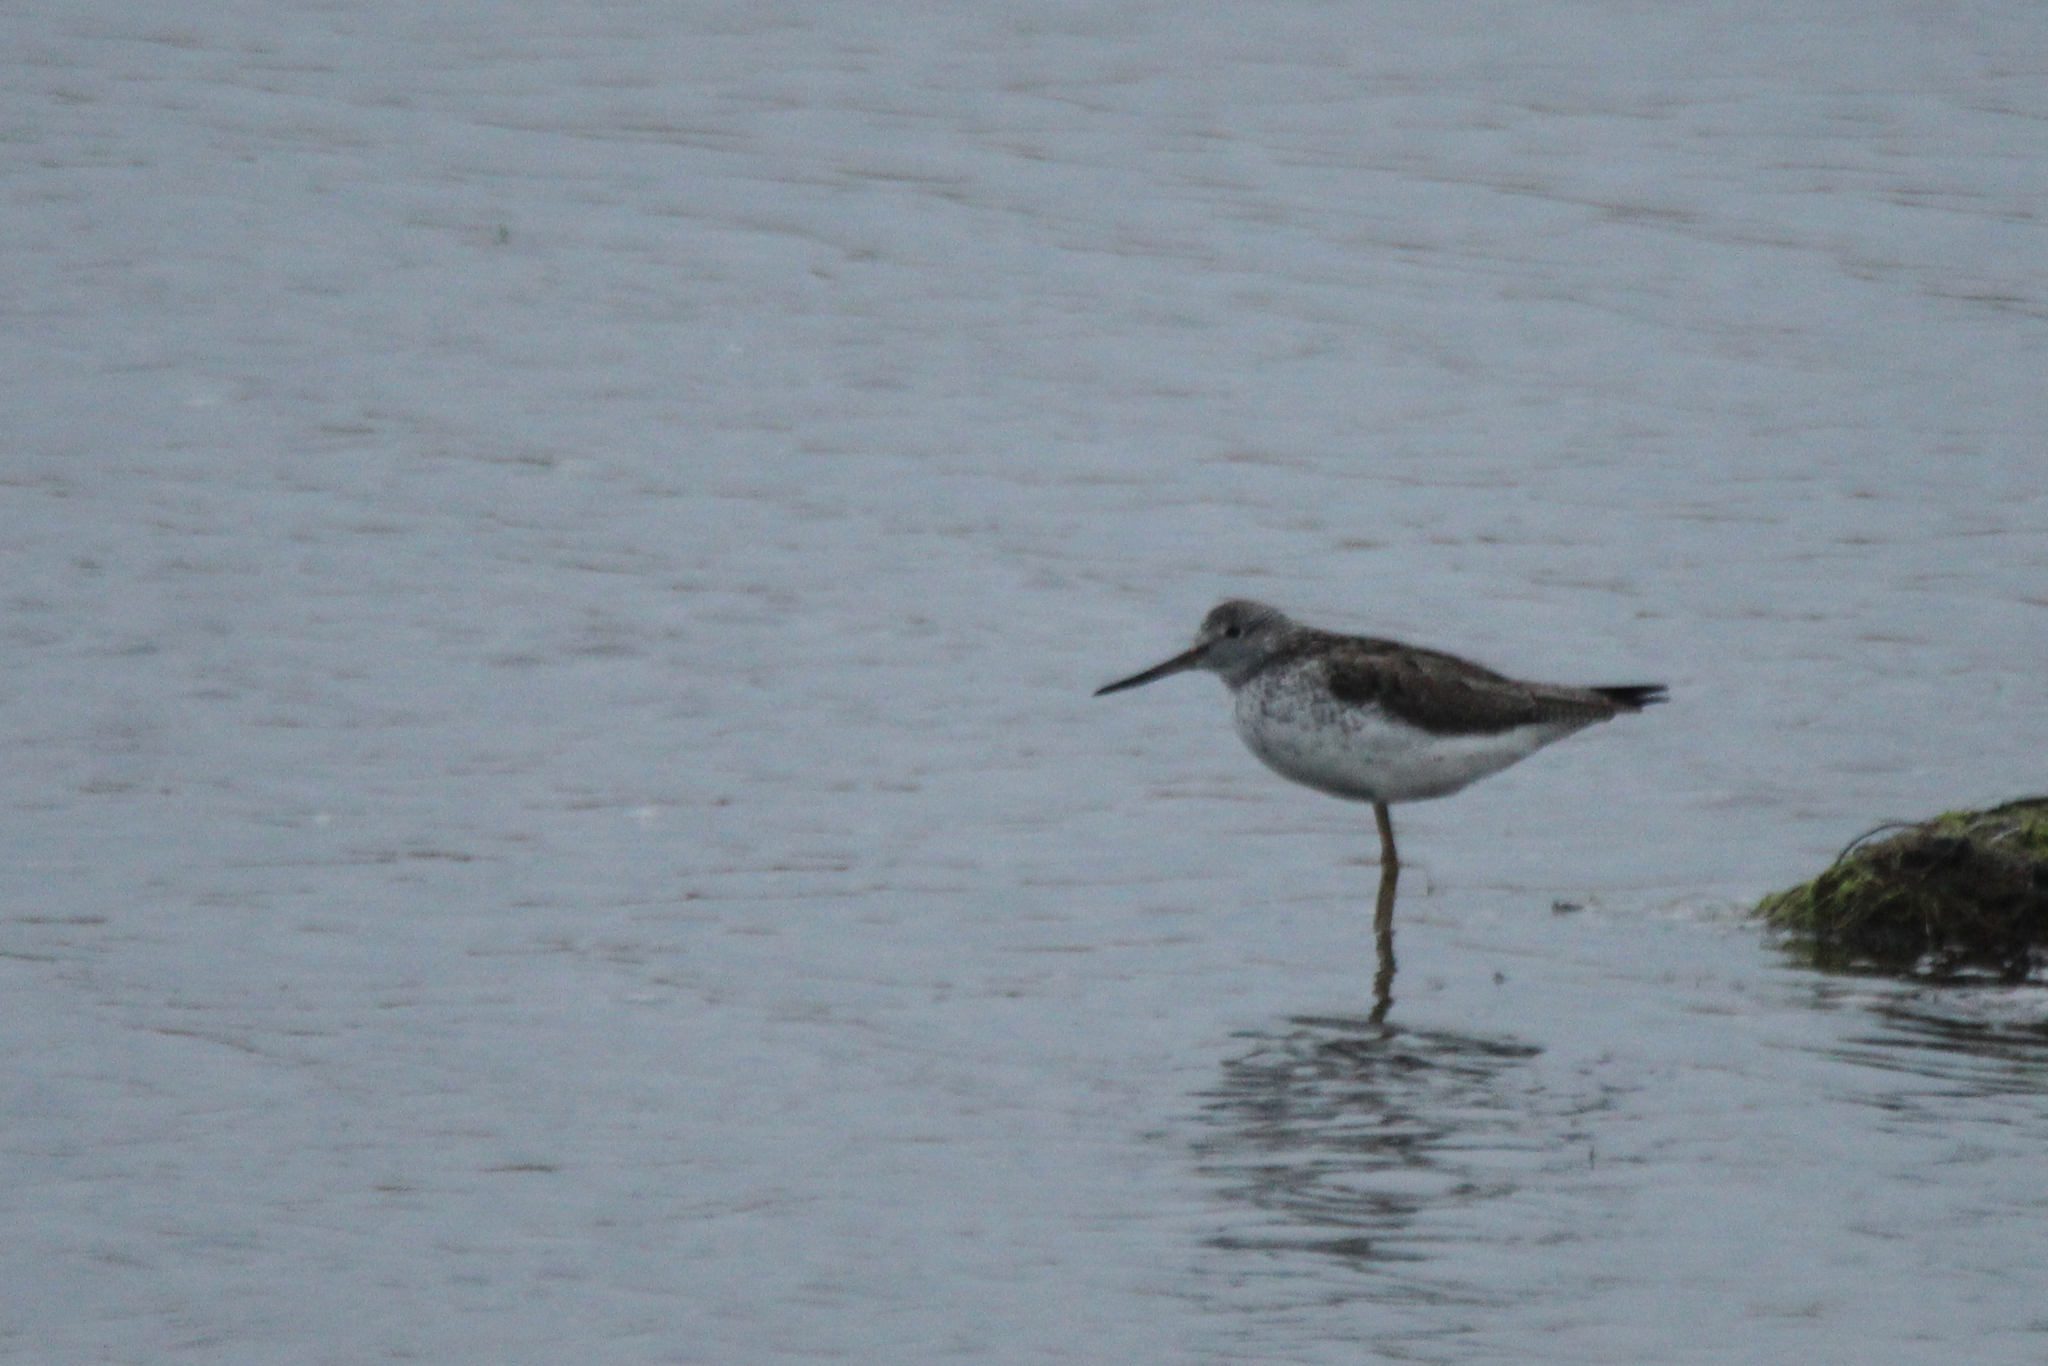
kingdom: Animalia
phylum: Chordata
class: Aves
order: Charadriiformes
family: Scolopacidae
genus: Tringa
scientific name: Tringa nebularia
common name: Common greenshank
